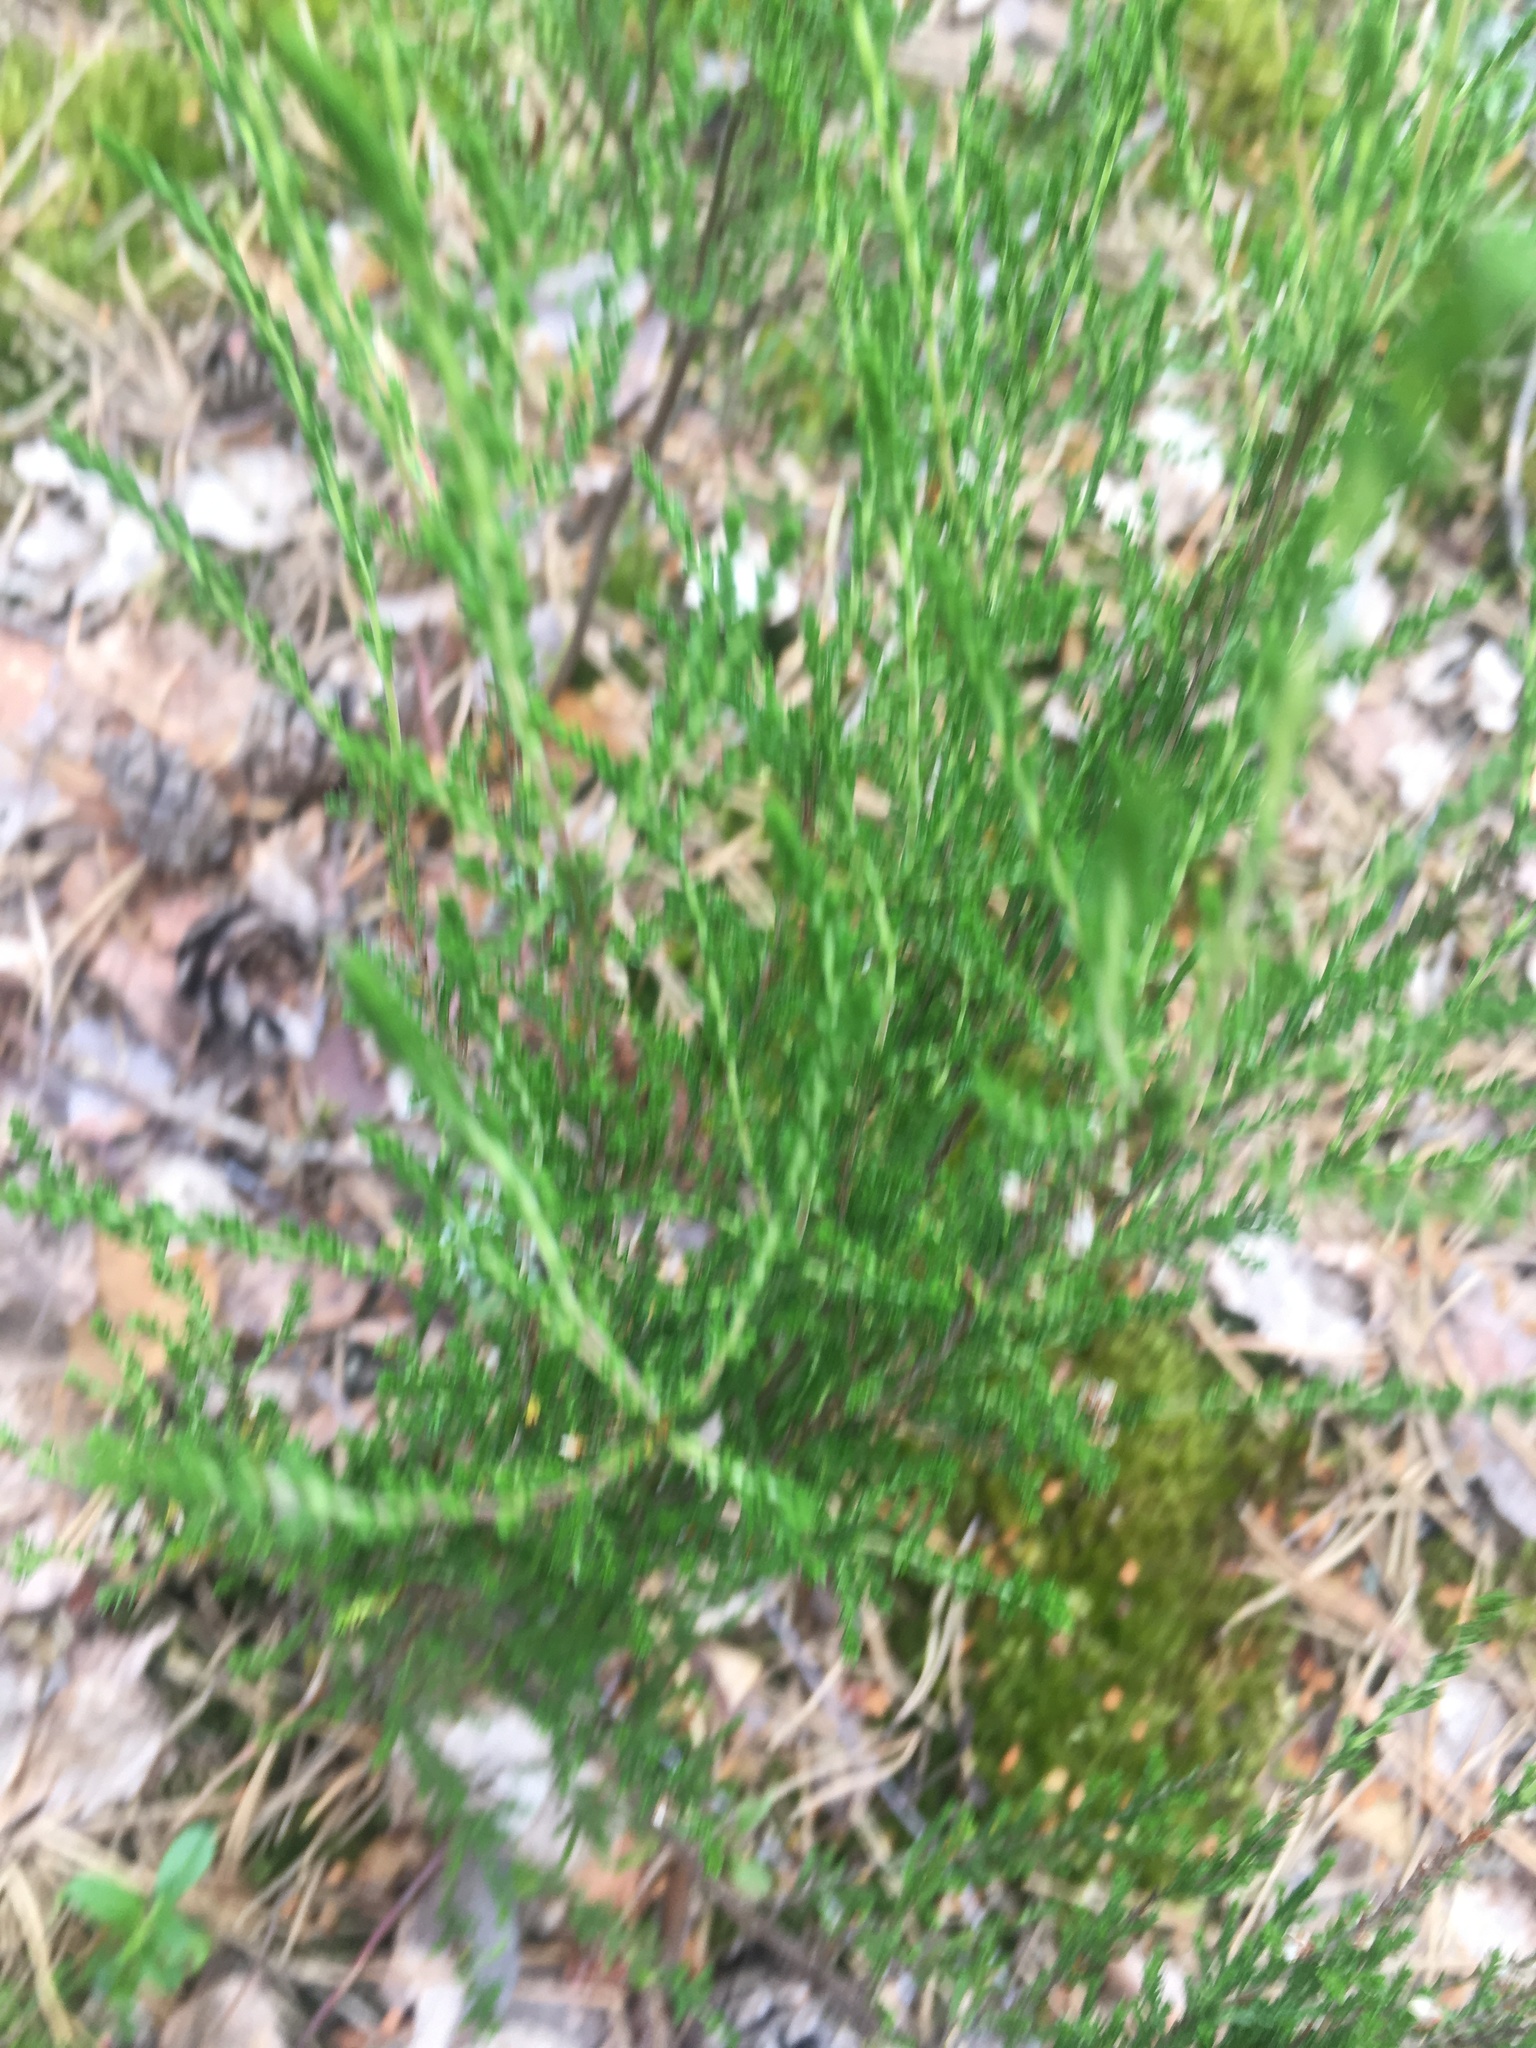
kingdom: Plantae
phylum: Tracheophyta
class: Magnoliopsida
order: Ericales
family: Ericaceae
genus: Calluna
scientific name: Calluna vulgaris
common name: Heather
